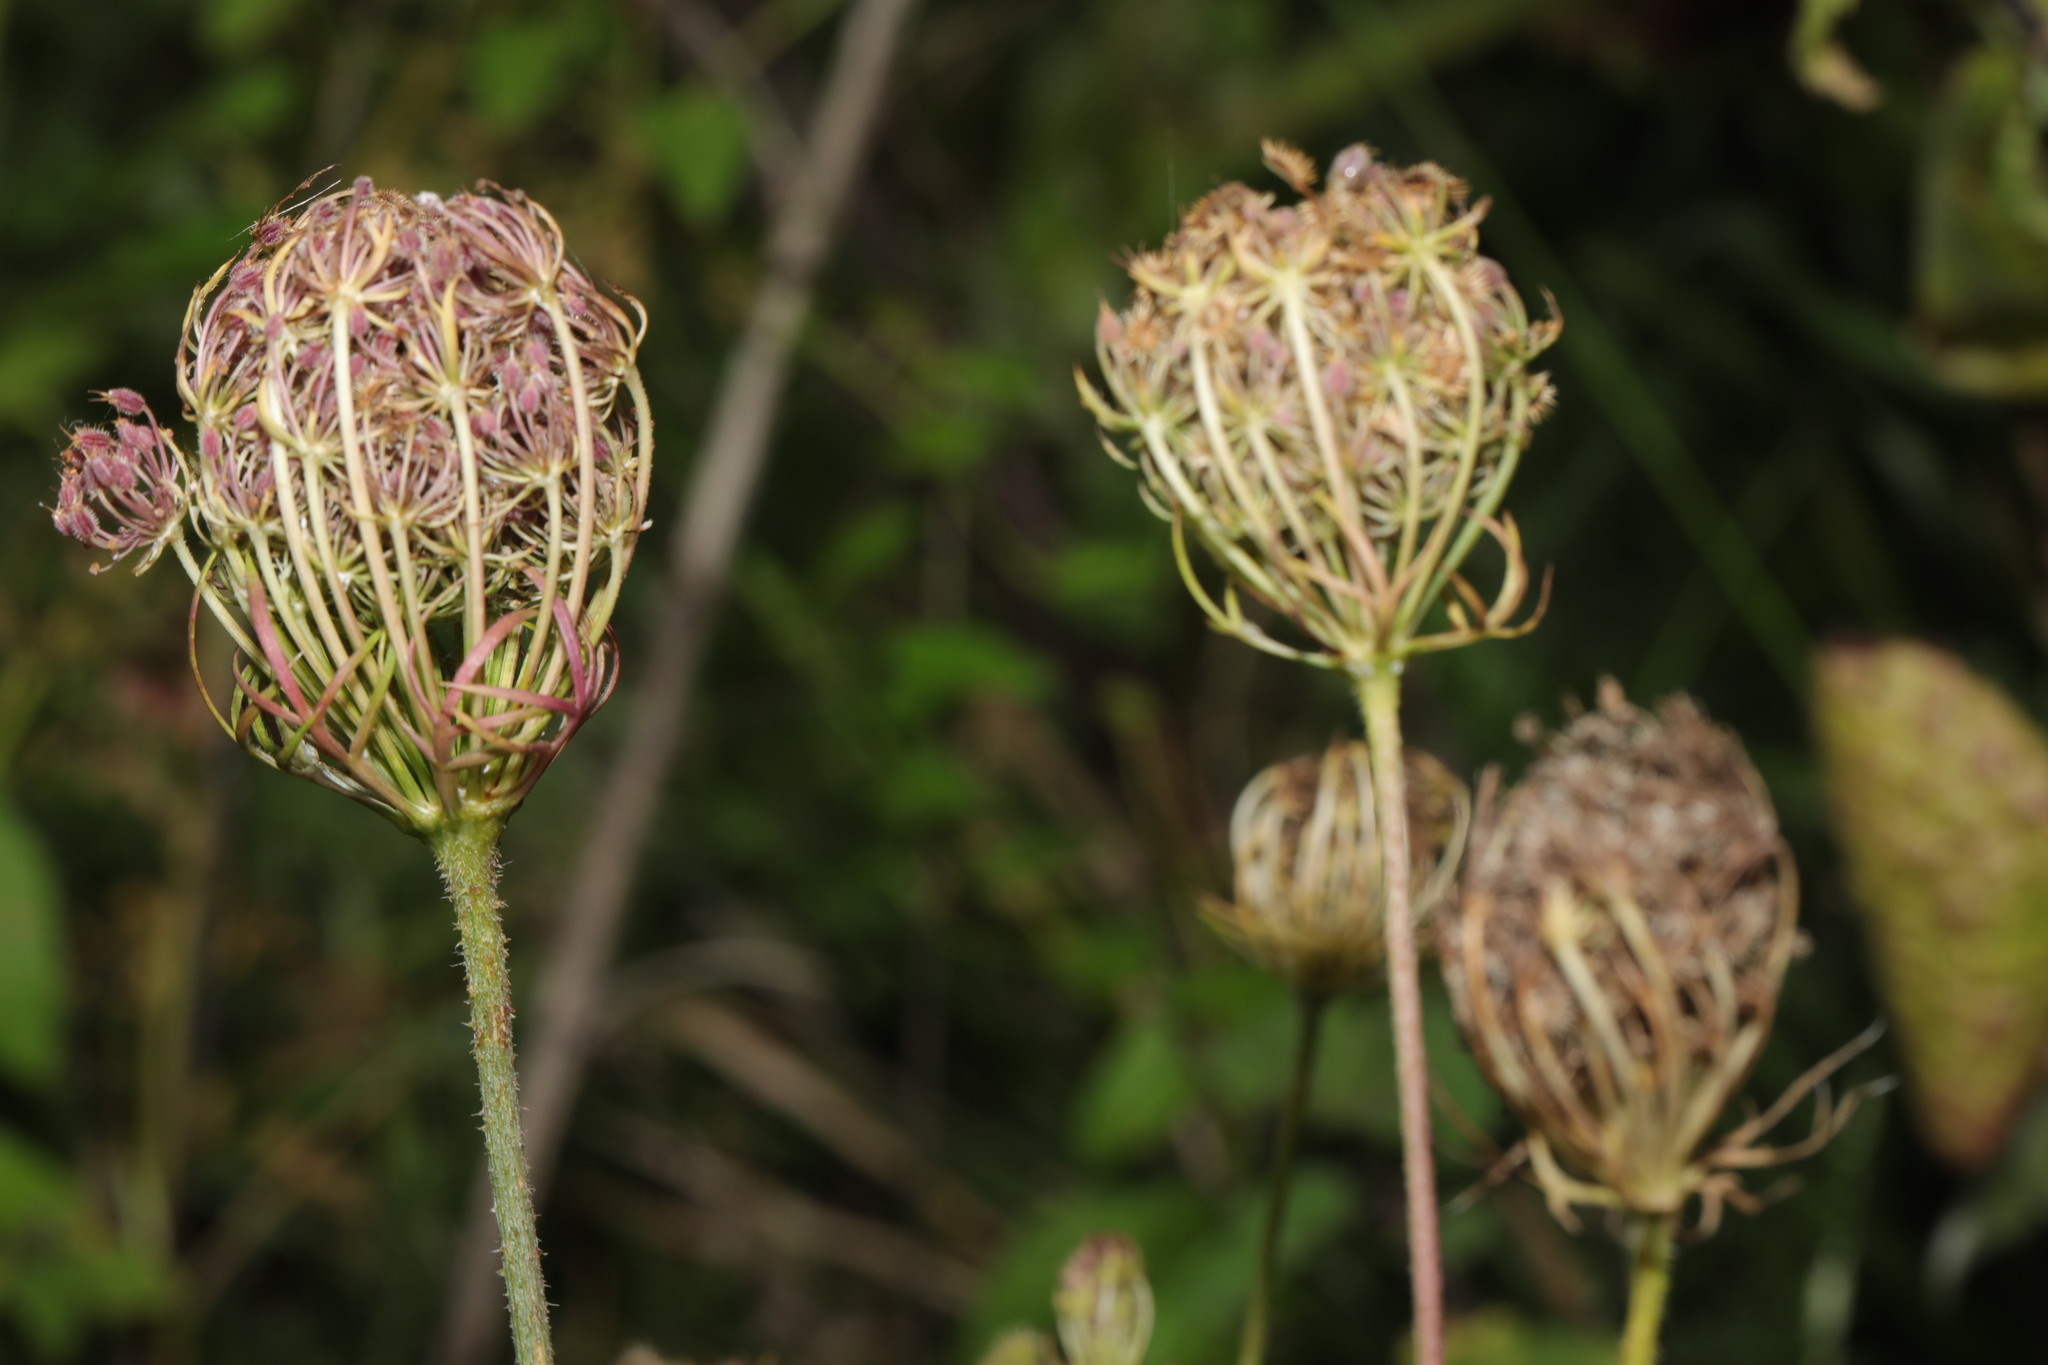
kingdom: Plantae
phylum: Tracheophyta
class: Magnoliopsida
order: Apiales
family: Apiaceae
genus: Daucus
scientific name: Daucus carota
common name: Wild carrot
